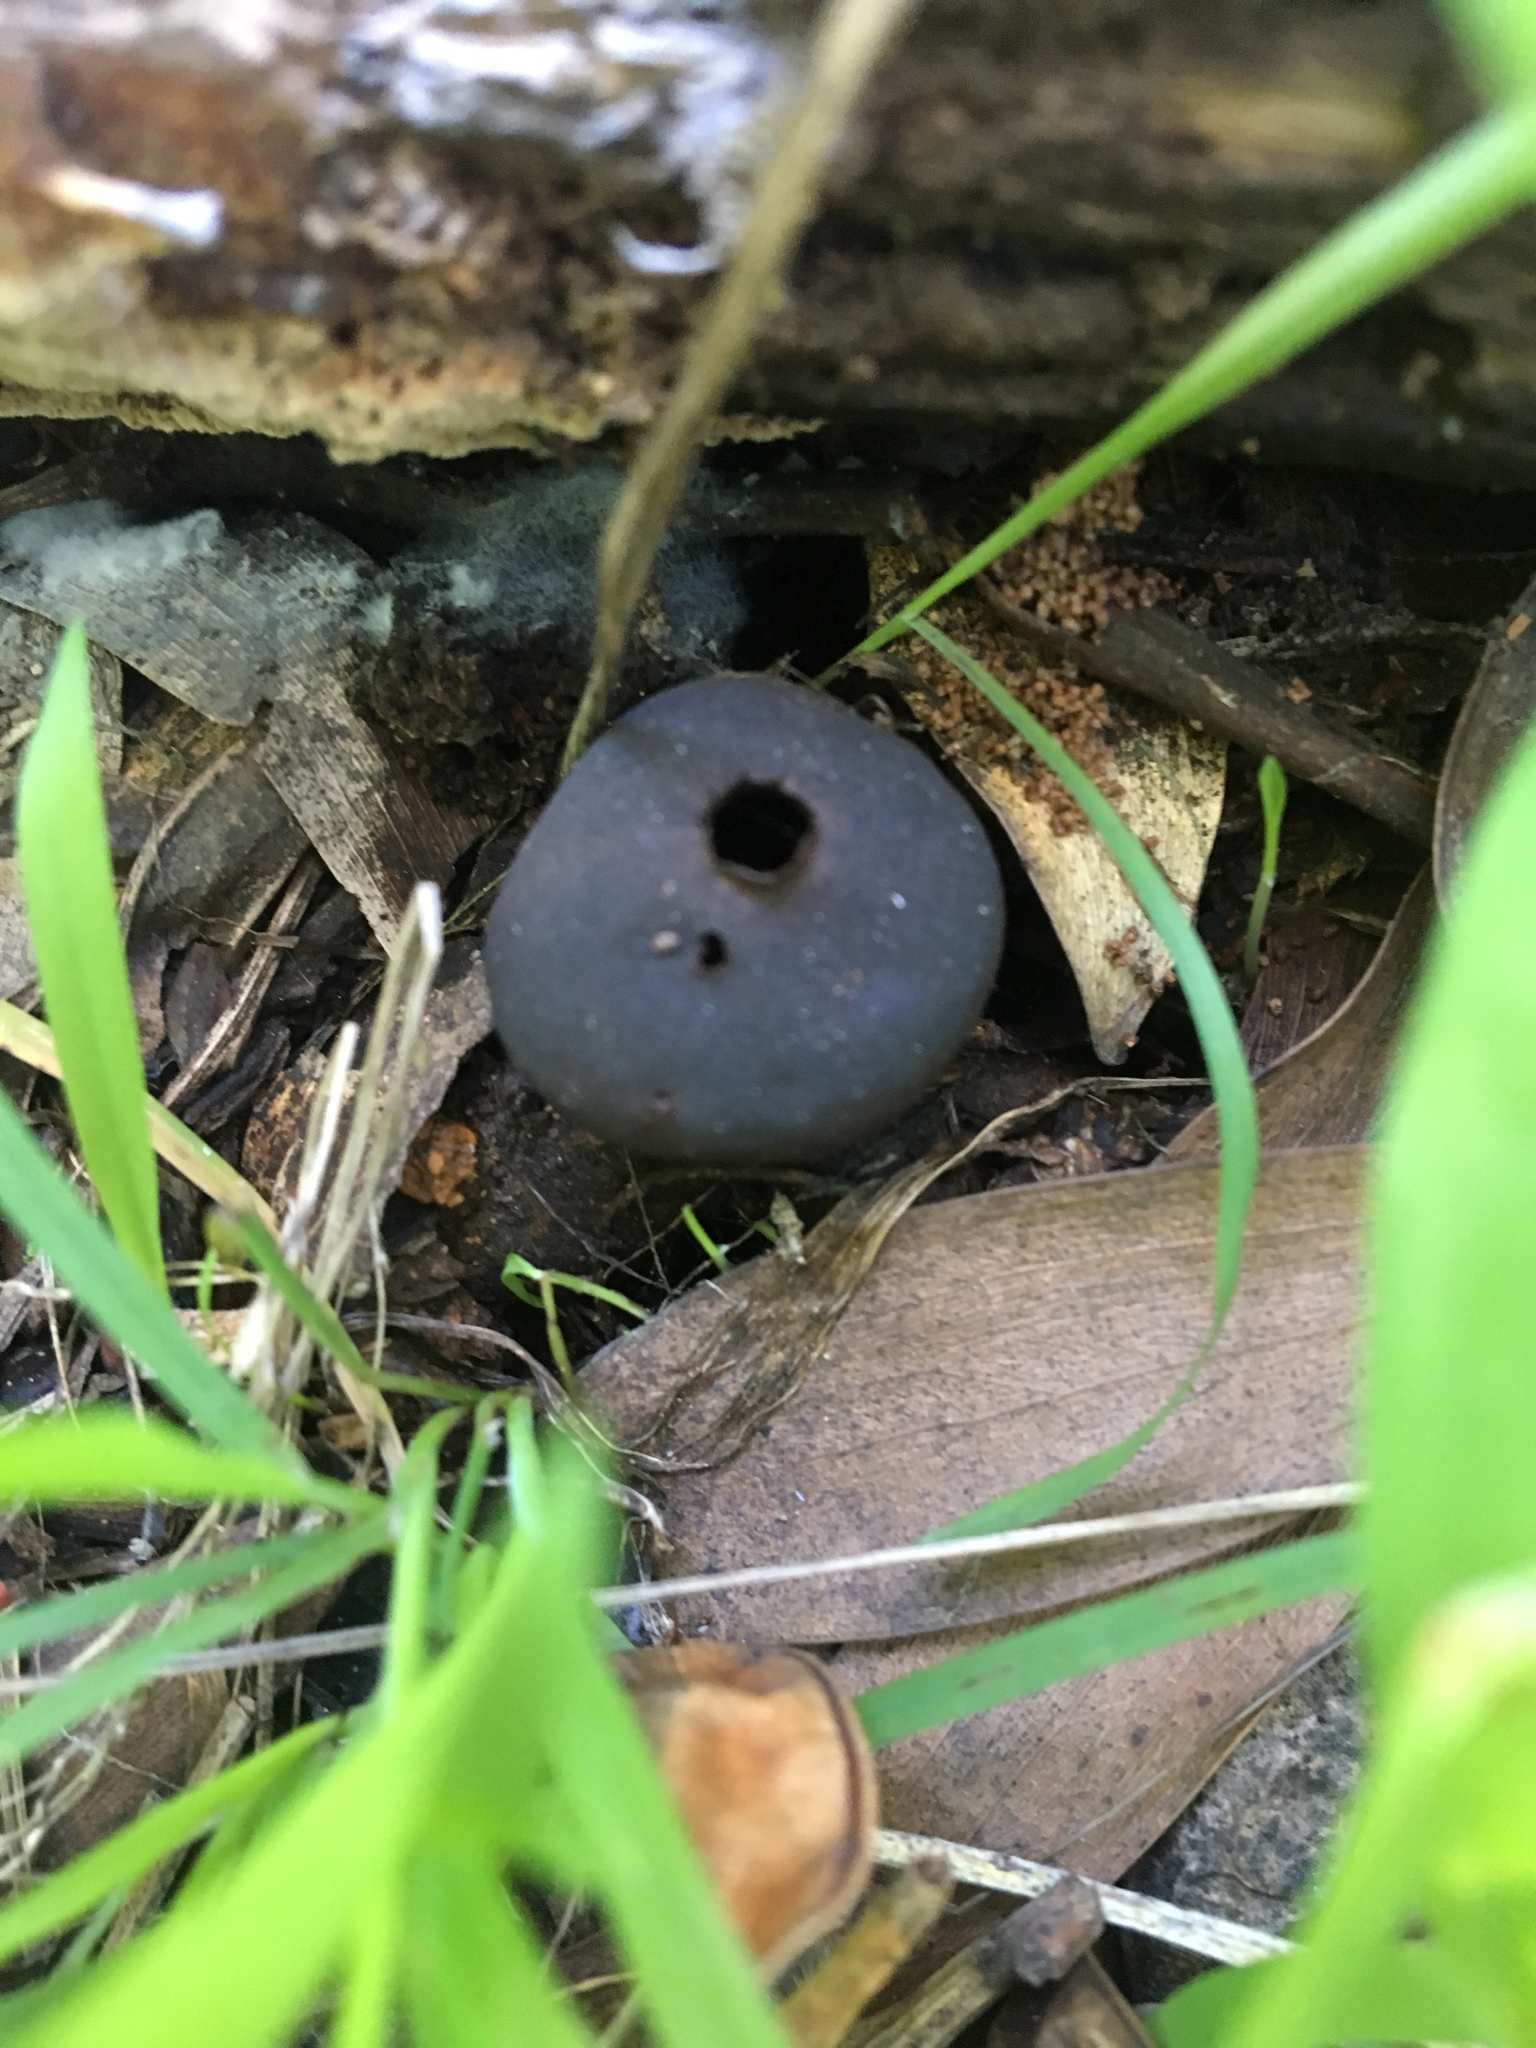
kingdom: Fungi
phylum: Basidiomycota
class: Agaricomycetes
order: Geastrales
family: Geastraceae
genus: Geastrum
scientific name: Geastrum fornicatum
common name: Arched earthstar
